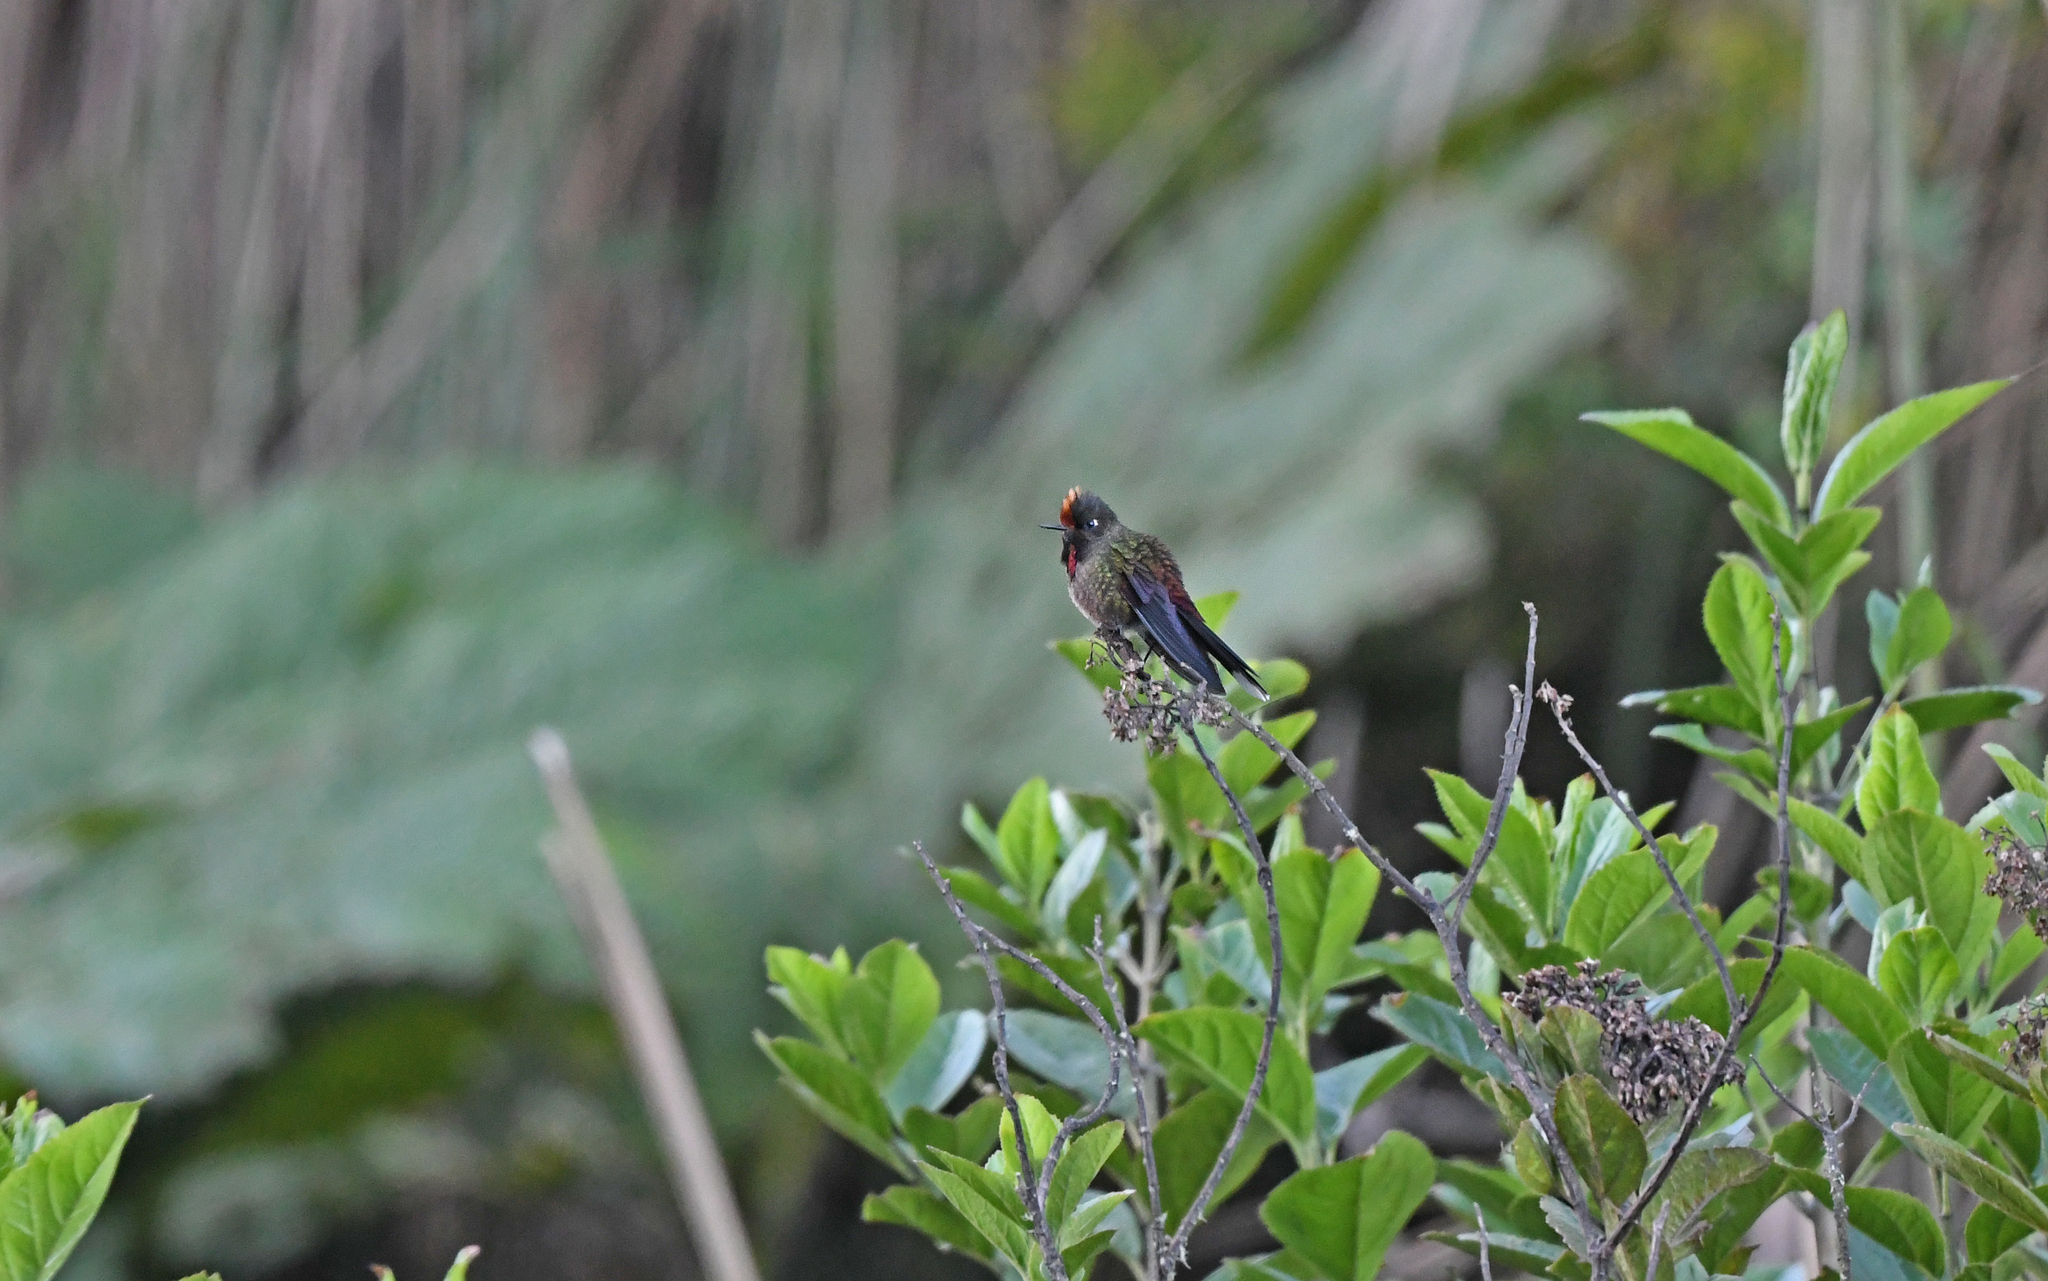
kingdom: Animalia
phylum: Chordata
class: Aves
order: Apodiformes
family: Trochilidae
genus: Chalcostigma
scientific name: Chalcostigma herrani
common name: Rainbow-bearded thornbill
